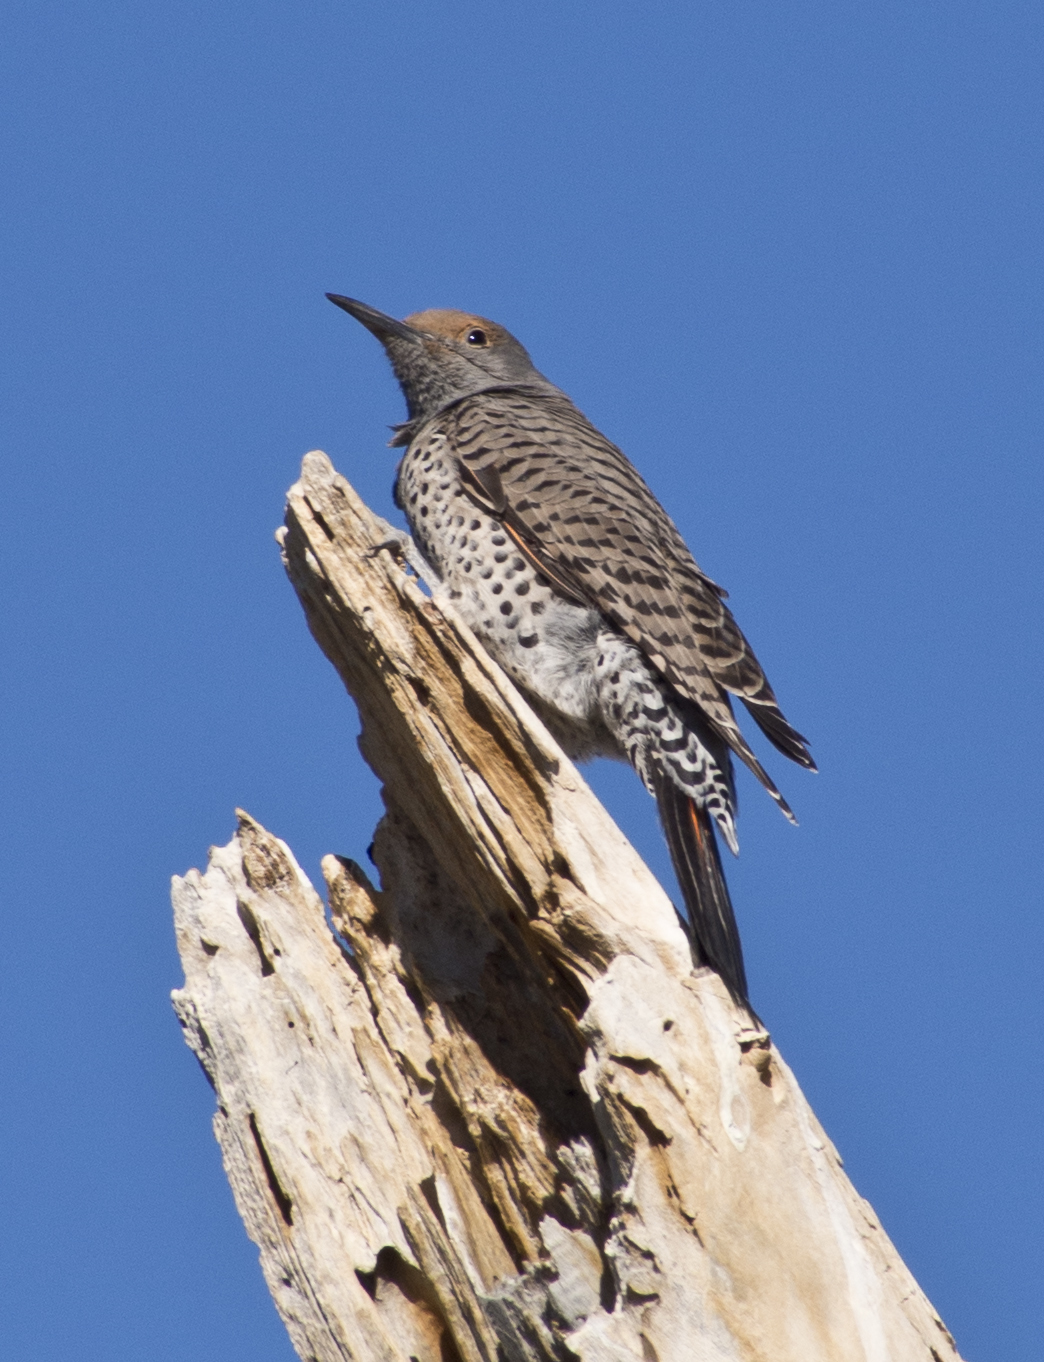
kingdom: Animalia
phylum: Chordata
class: Aves
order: Piciformes
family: Picidae
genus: Colaptes
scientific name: Colaptes auratus
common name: Northern flicker
